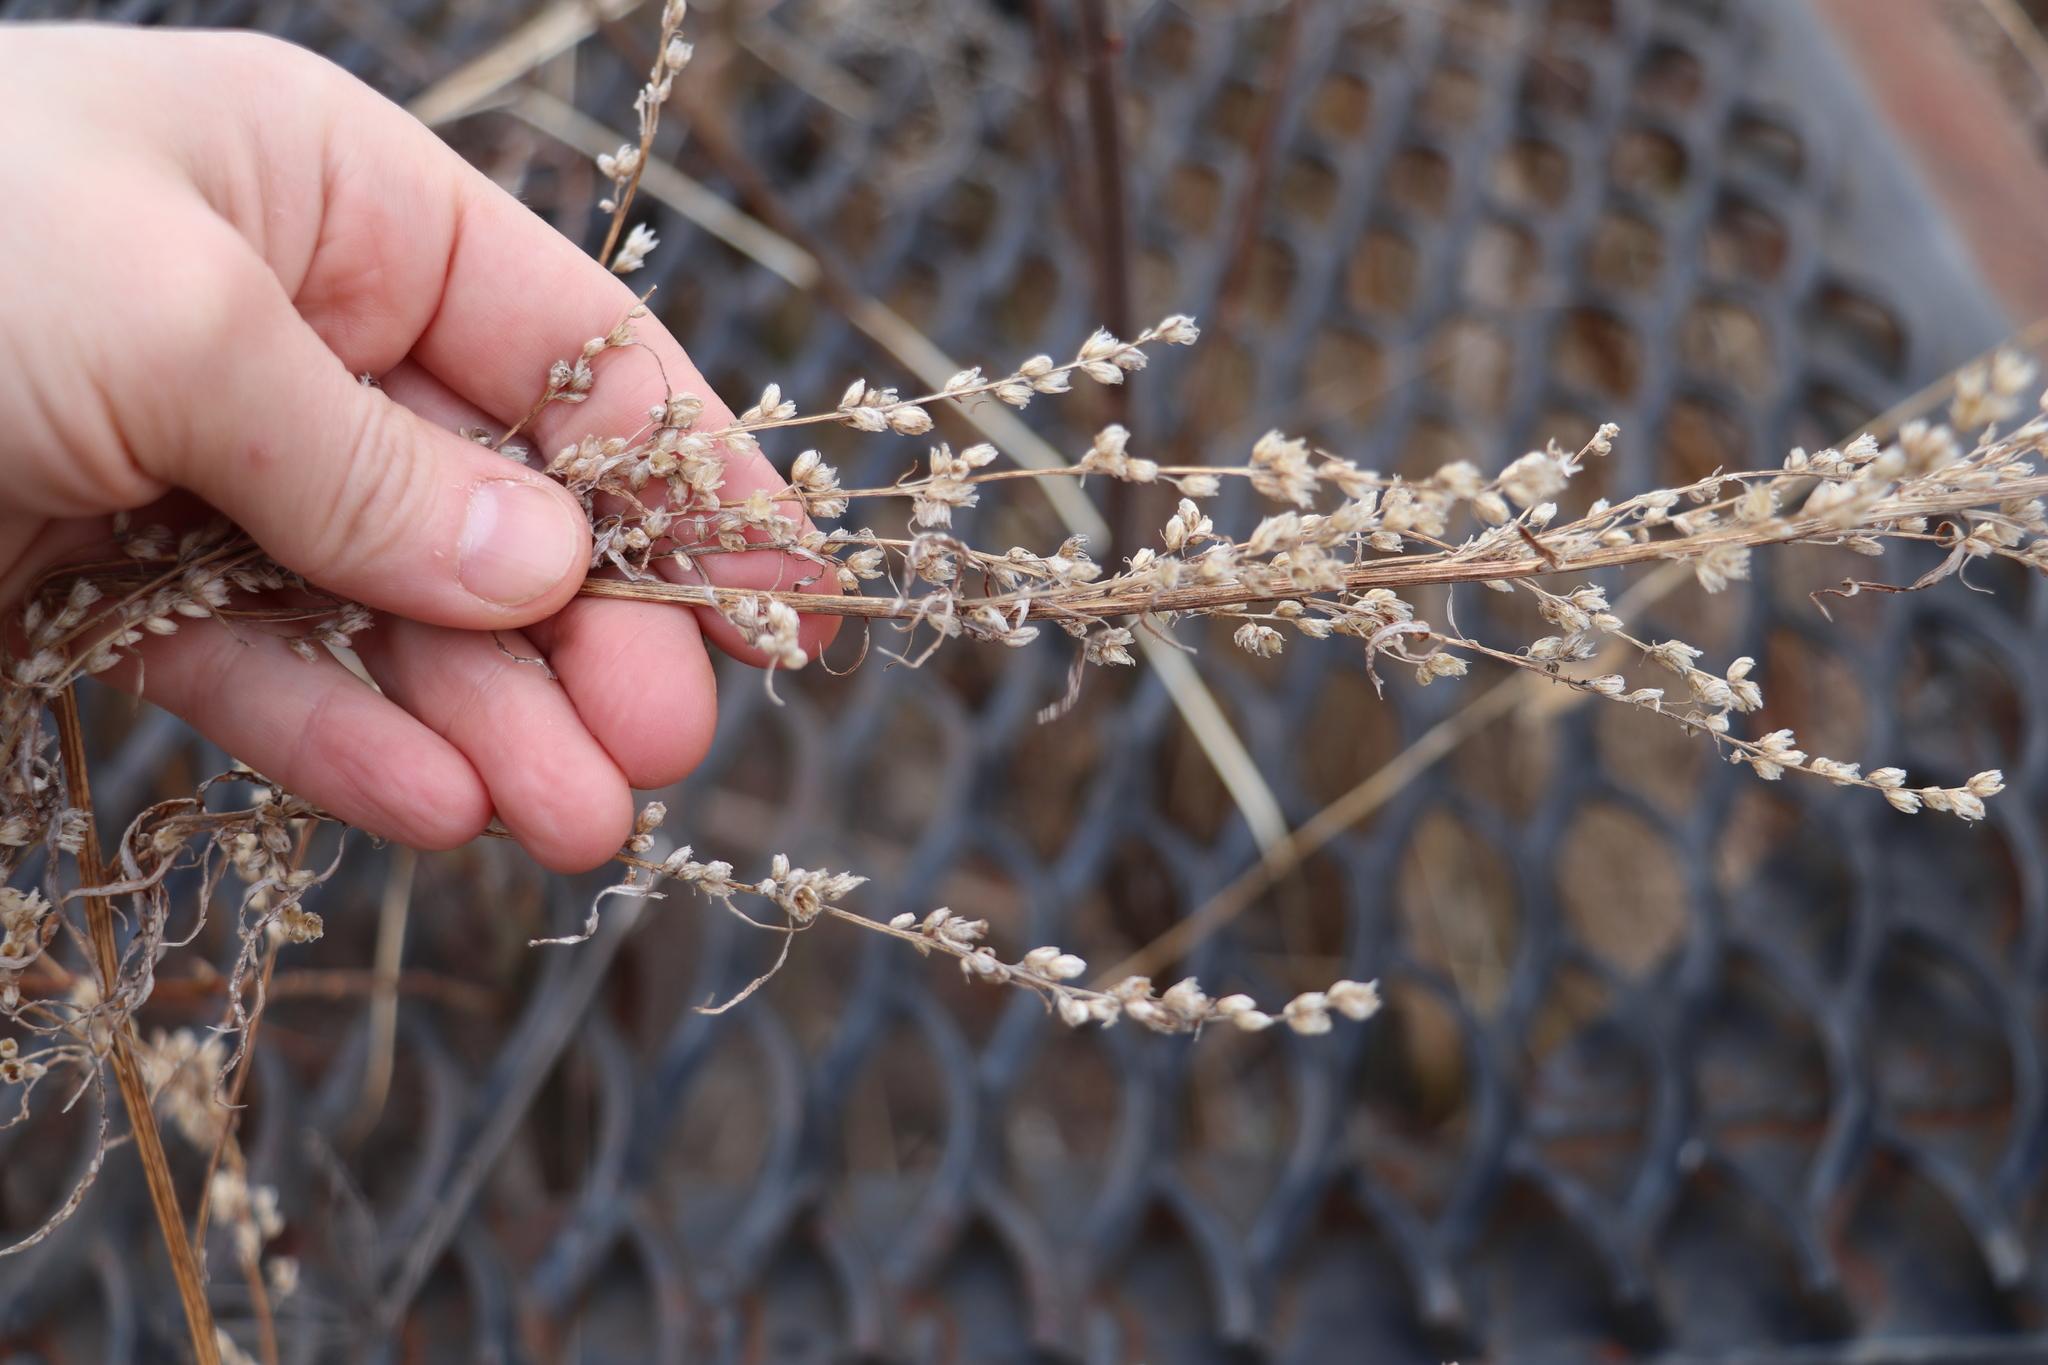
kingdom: Plantae
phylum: Tracheophyta
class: Magnoliopsida
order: Asterales
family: Asteraceae
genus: Artemisia
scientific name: Artemisia vulgaris
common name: Mugwort
